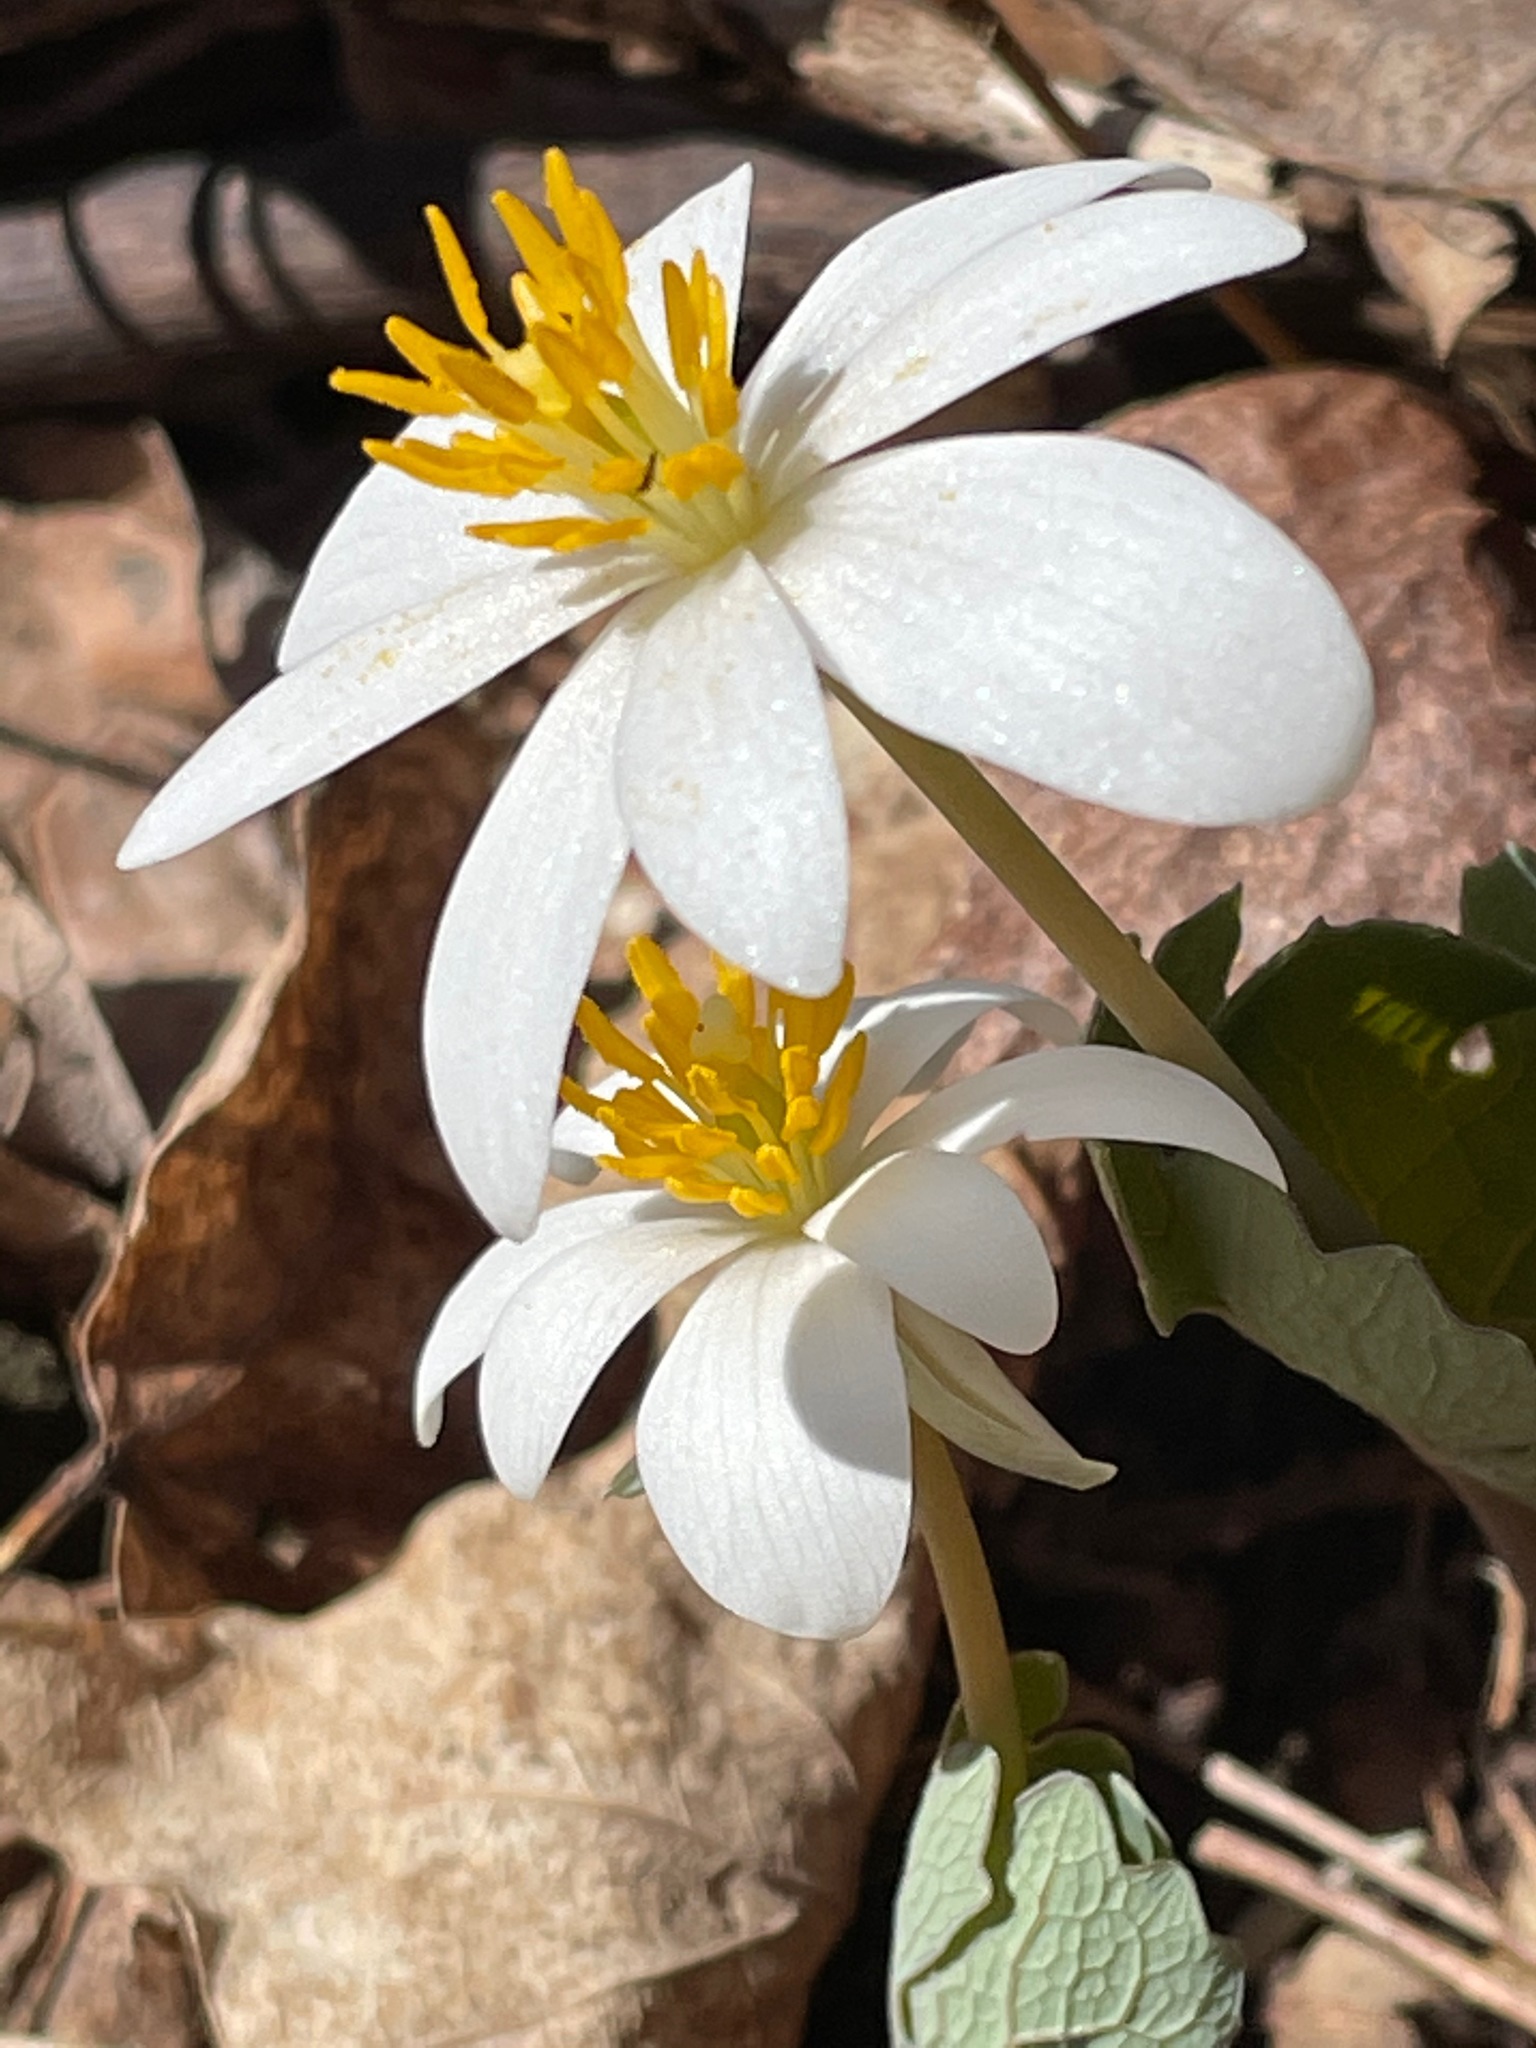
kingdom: Plantae
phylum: Tracheophyta
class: Magnoliopsida
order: Ranunculales
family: Papaveraceae
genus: Sanguinaria
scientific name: Sanguinaria canadensis
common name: Bloodroot
